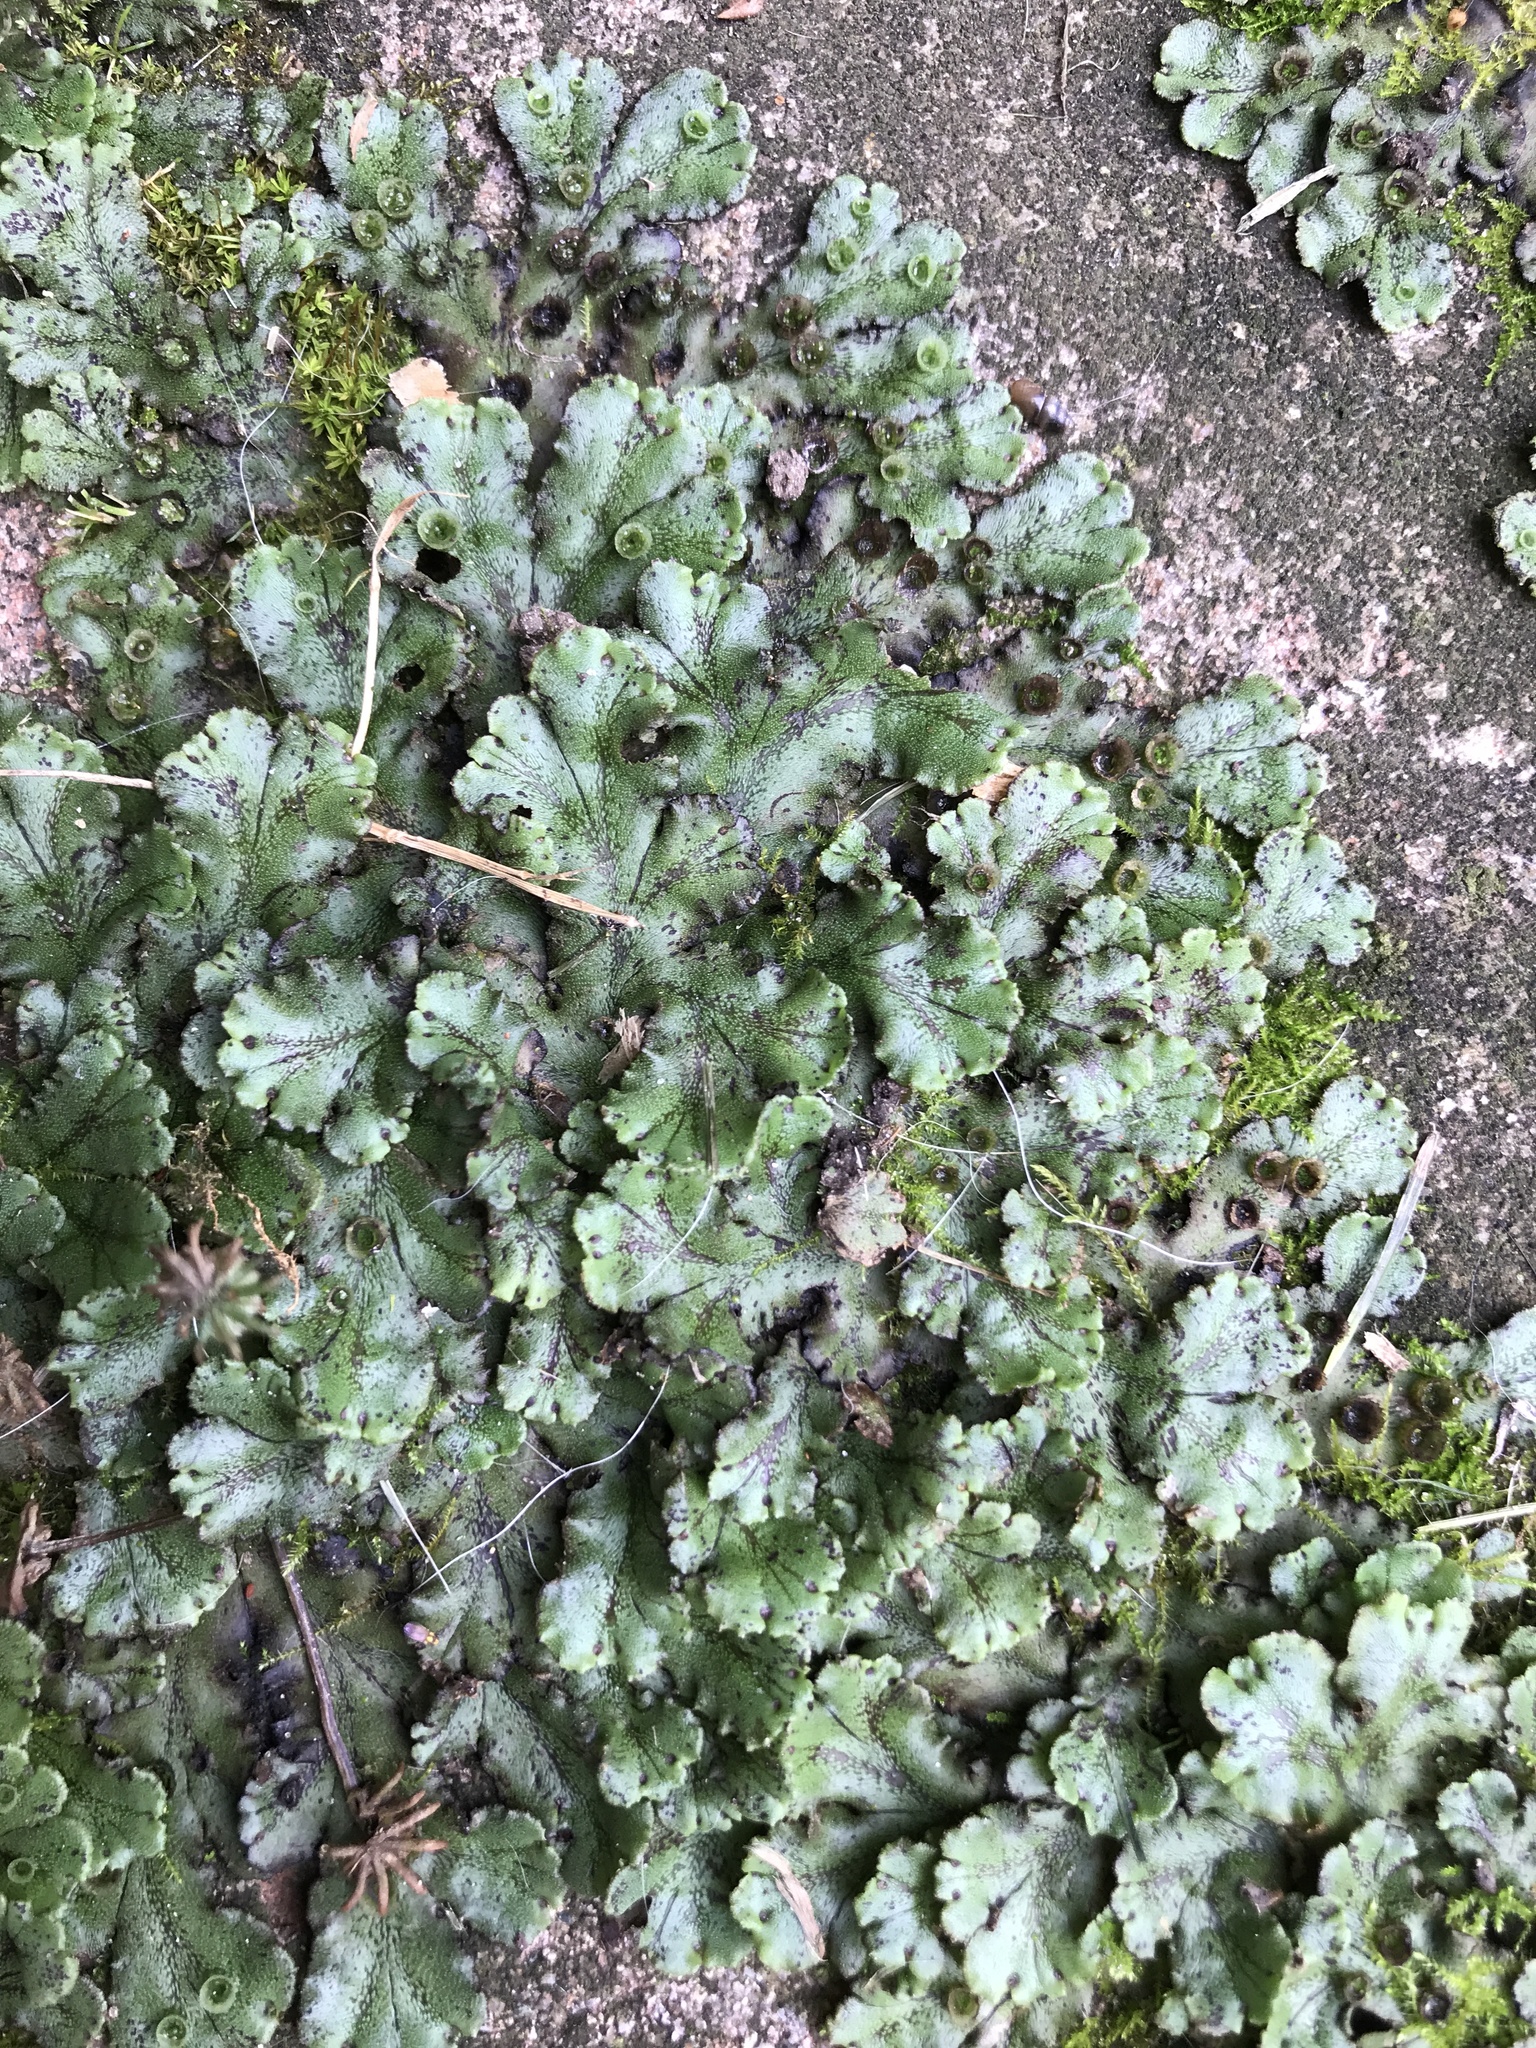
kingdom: Plantae
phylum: Marchantiophyta
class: Marchantiopsida
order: Marchantiales
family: Marchantiaceae
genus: Marchantia
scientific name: Marchantia polymorpha
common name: Common liverwort
